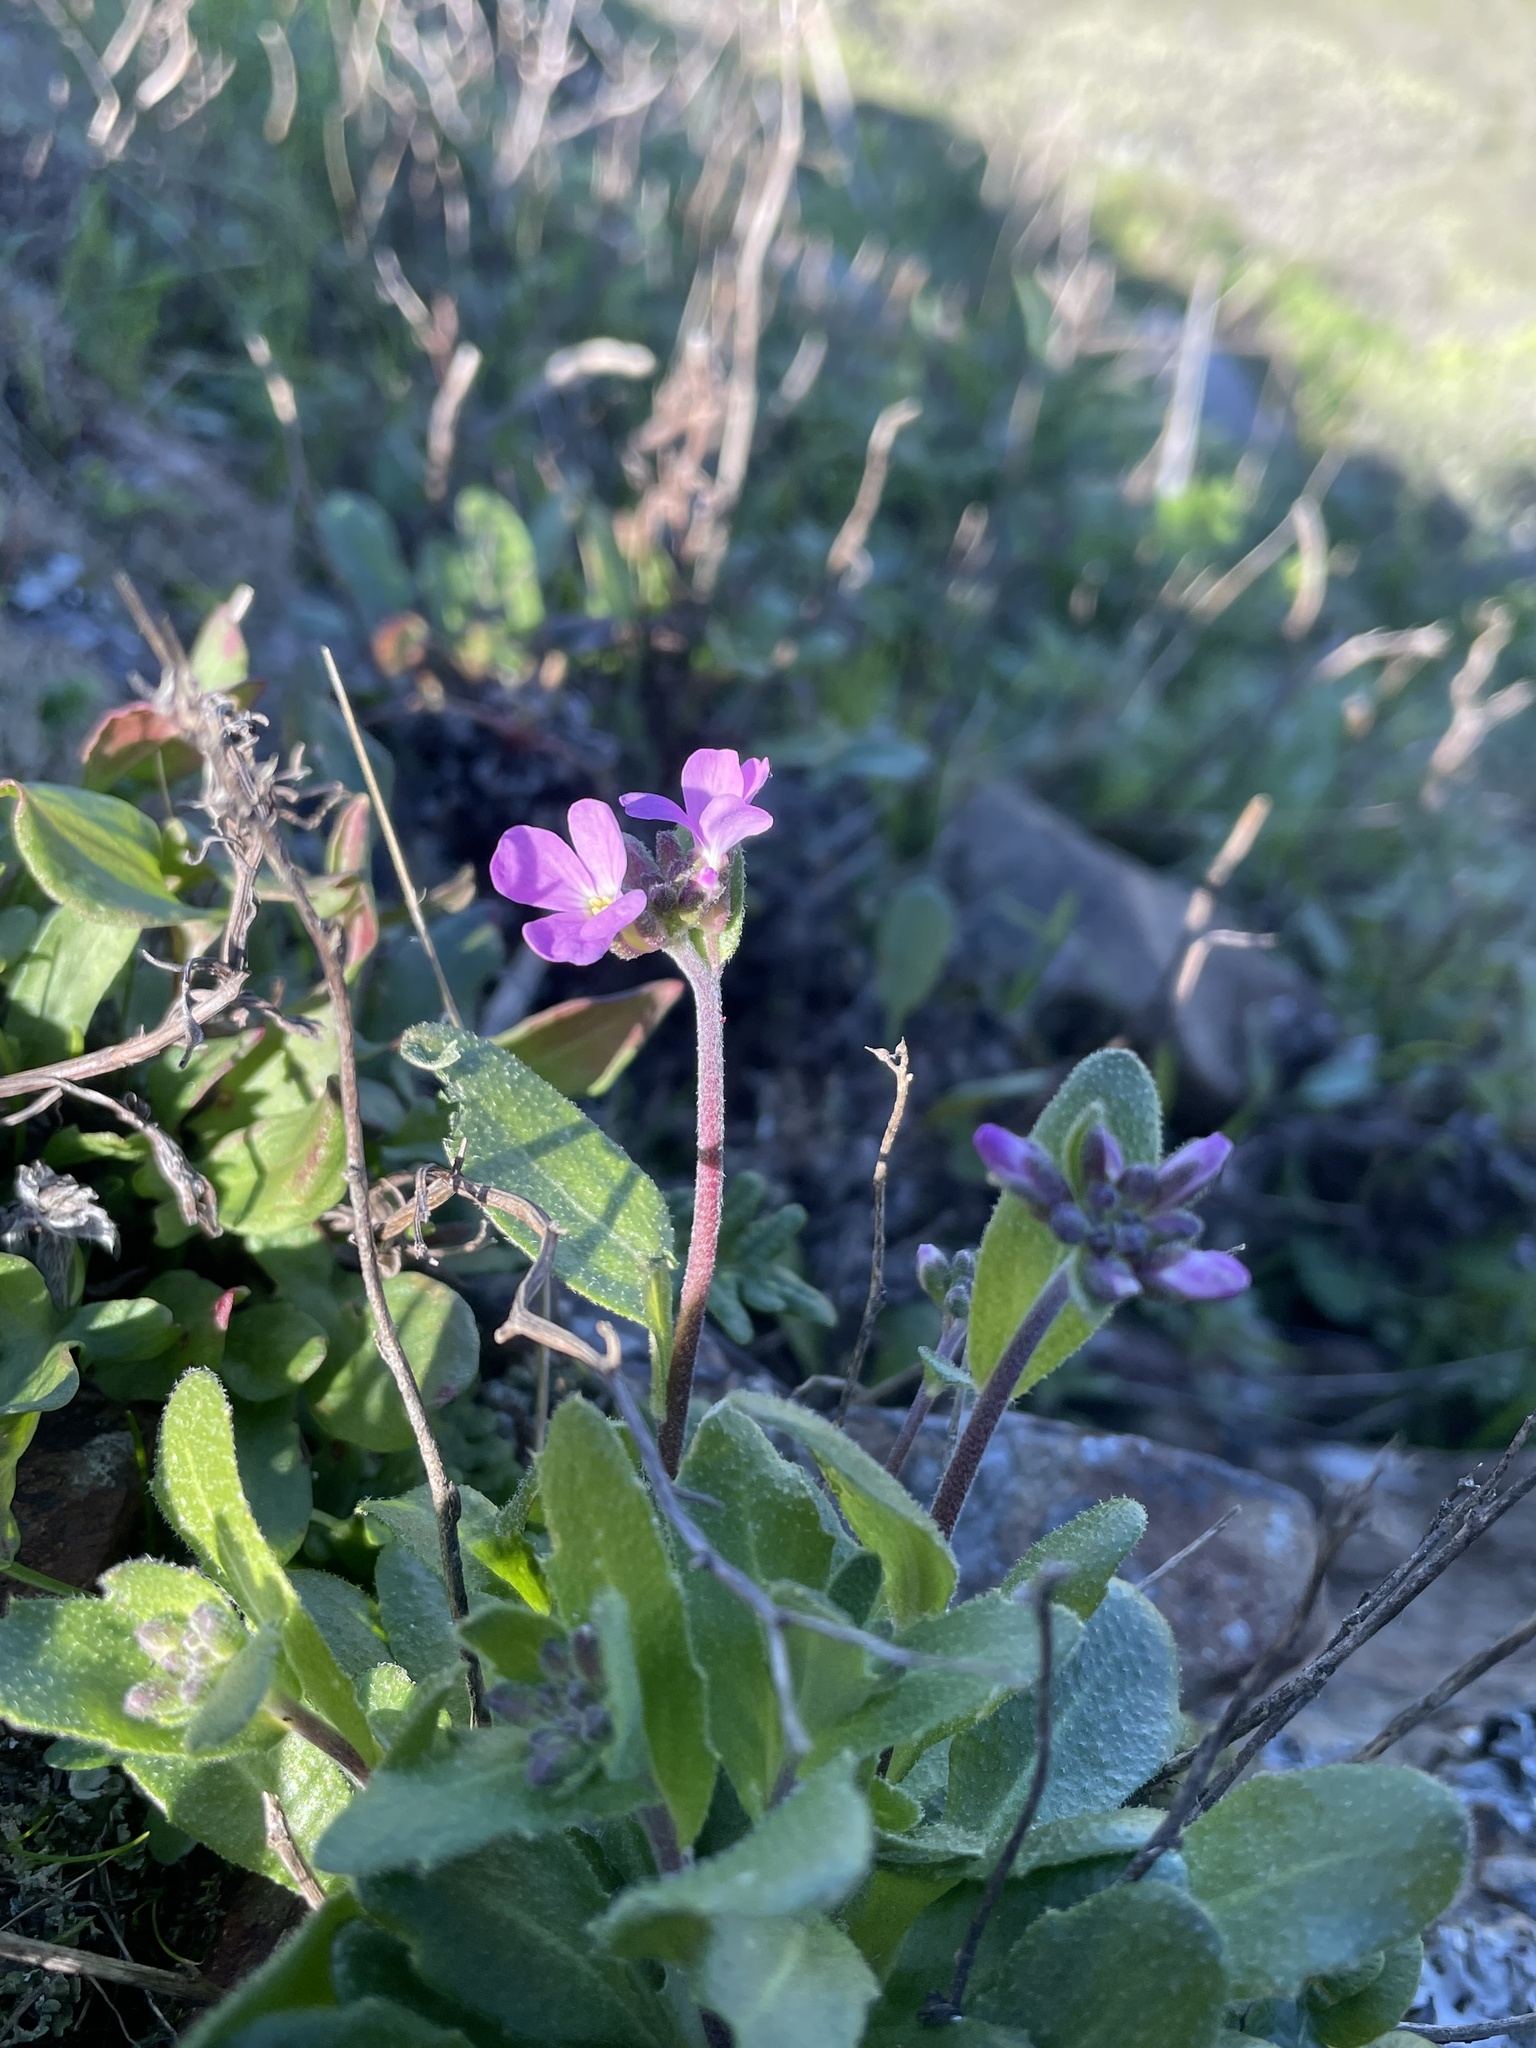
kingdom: Plantae
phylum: Tracheophyta
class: Magnoliopsida
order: Brassicales
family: Brassicaceae
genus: Arabis
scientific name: Arabis blepharophylla
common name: Rose rockcress
